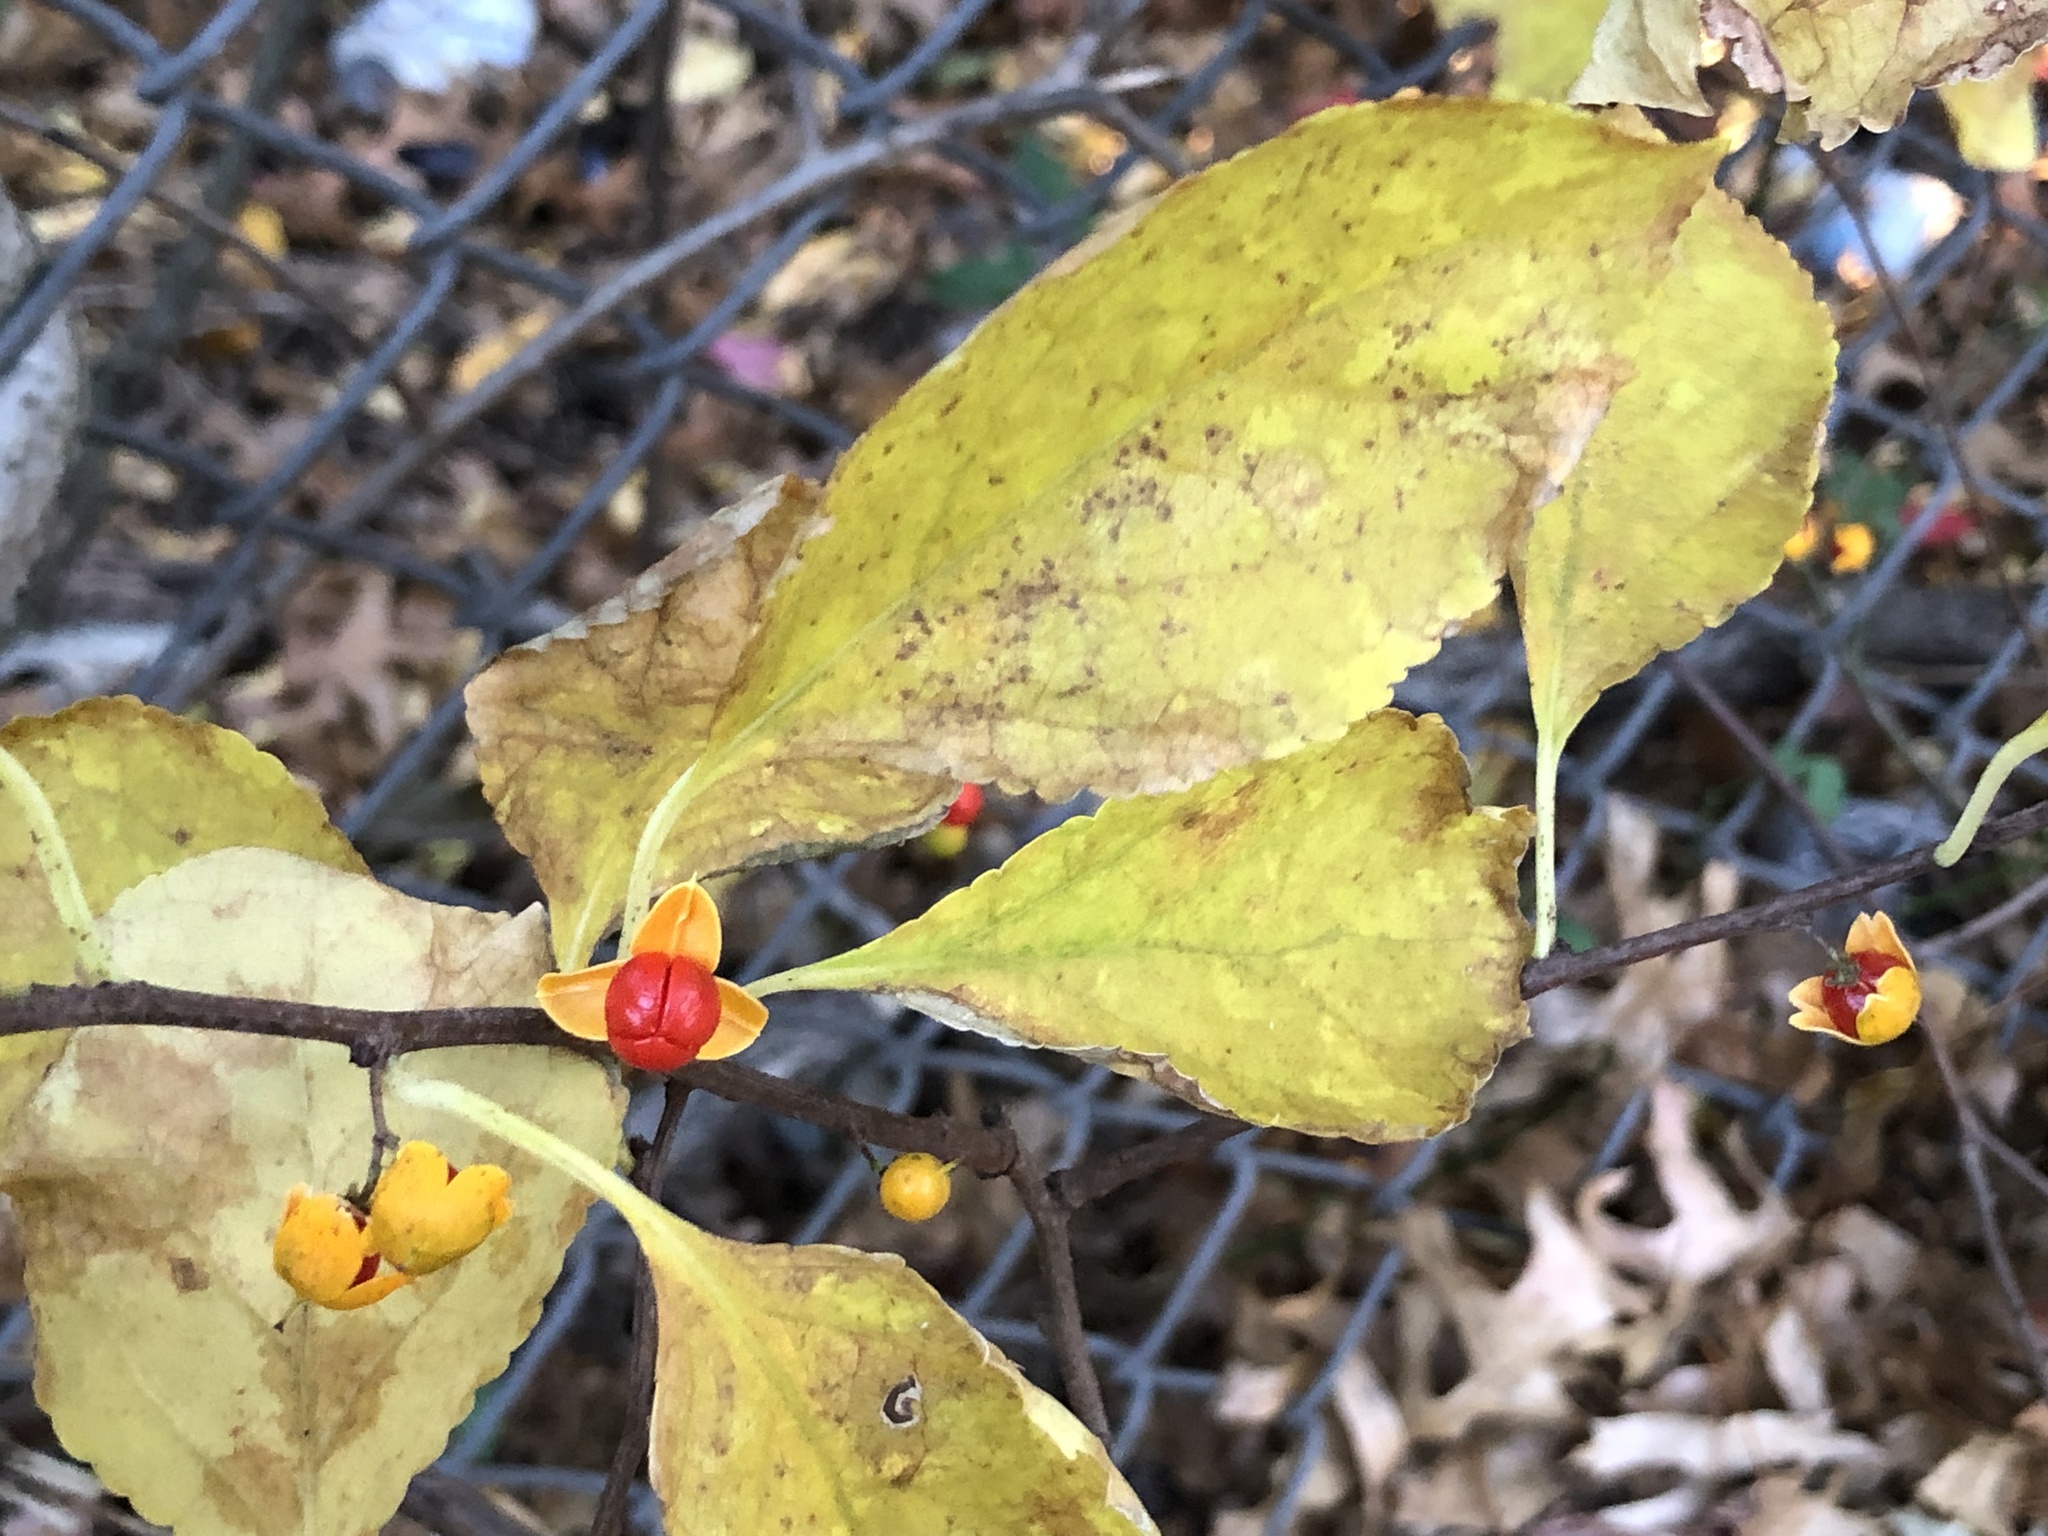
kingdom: Plantae
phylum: Tracheophyta
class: Magnoliopsida
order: Celastrales
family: Celastraceae
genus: Celastrus
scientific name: Celastrus orbiculatus
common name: Oriental bittersweet
